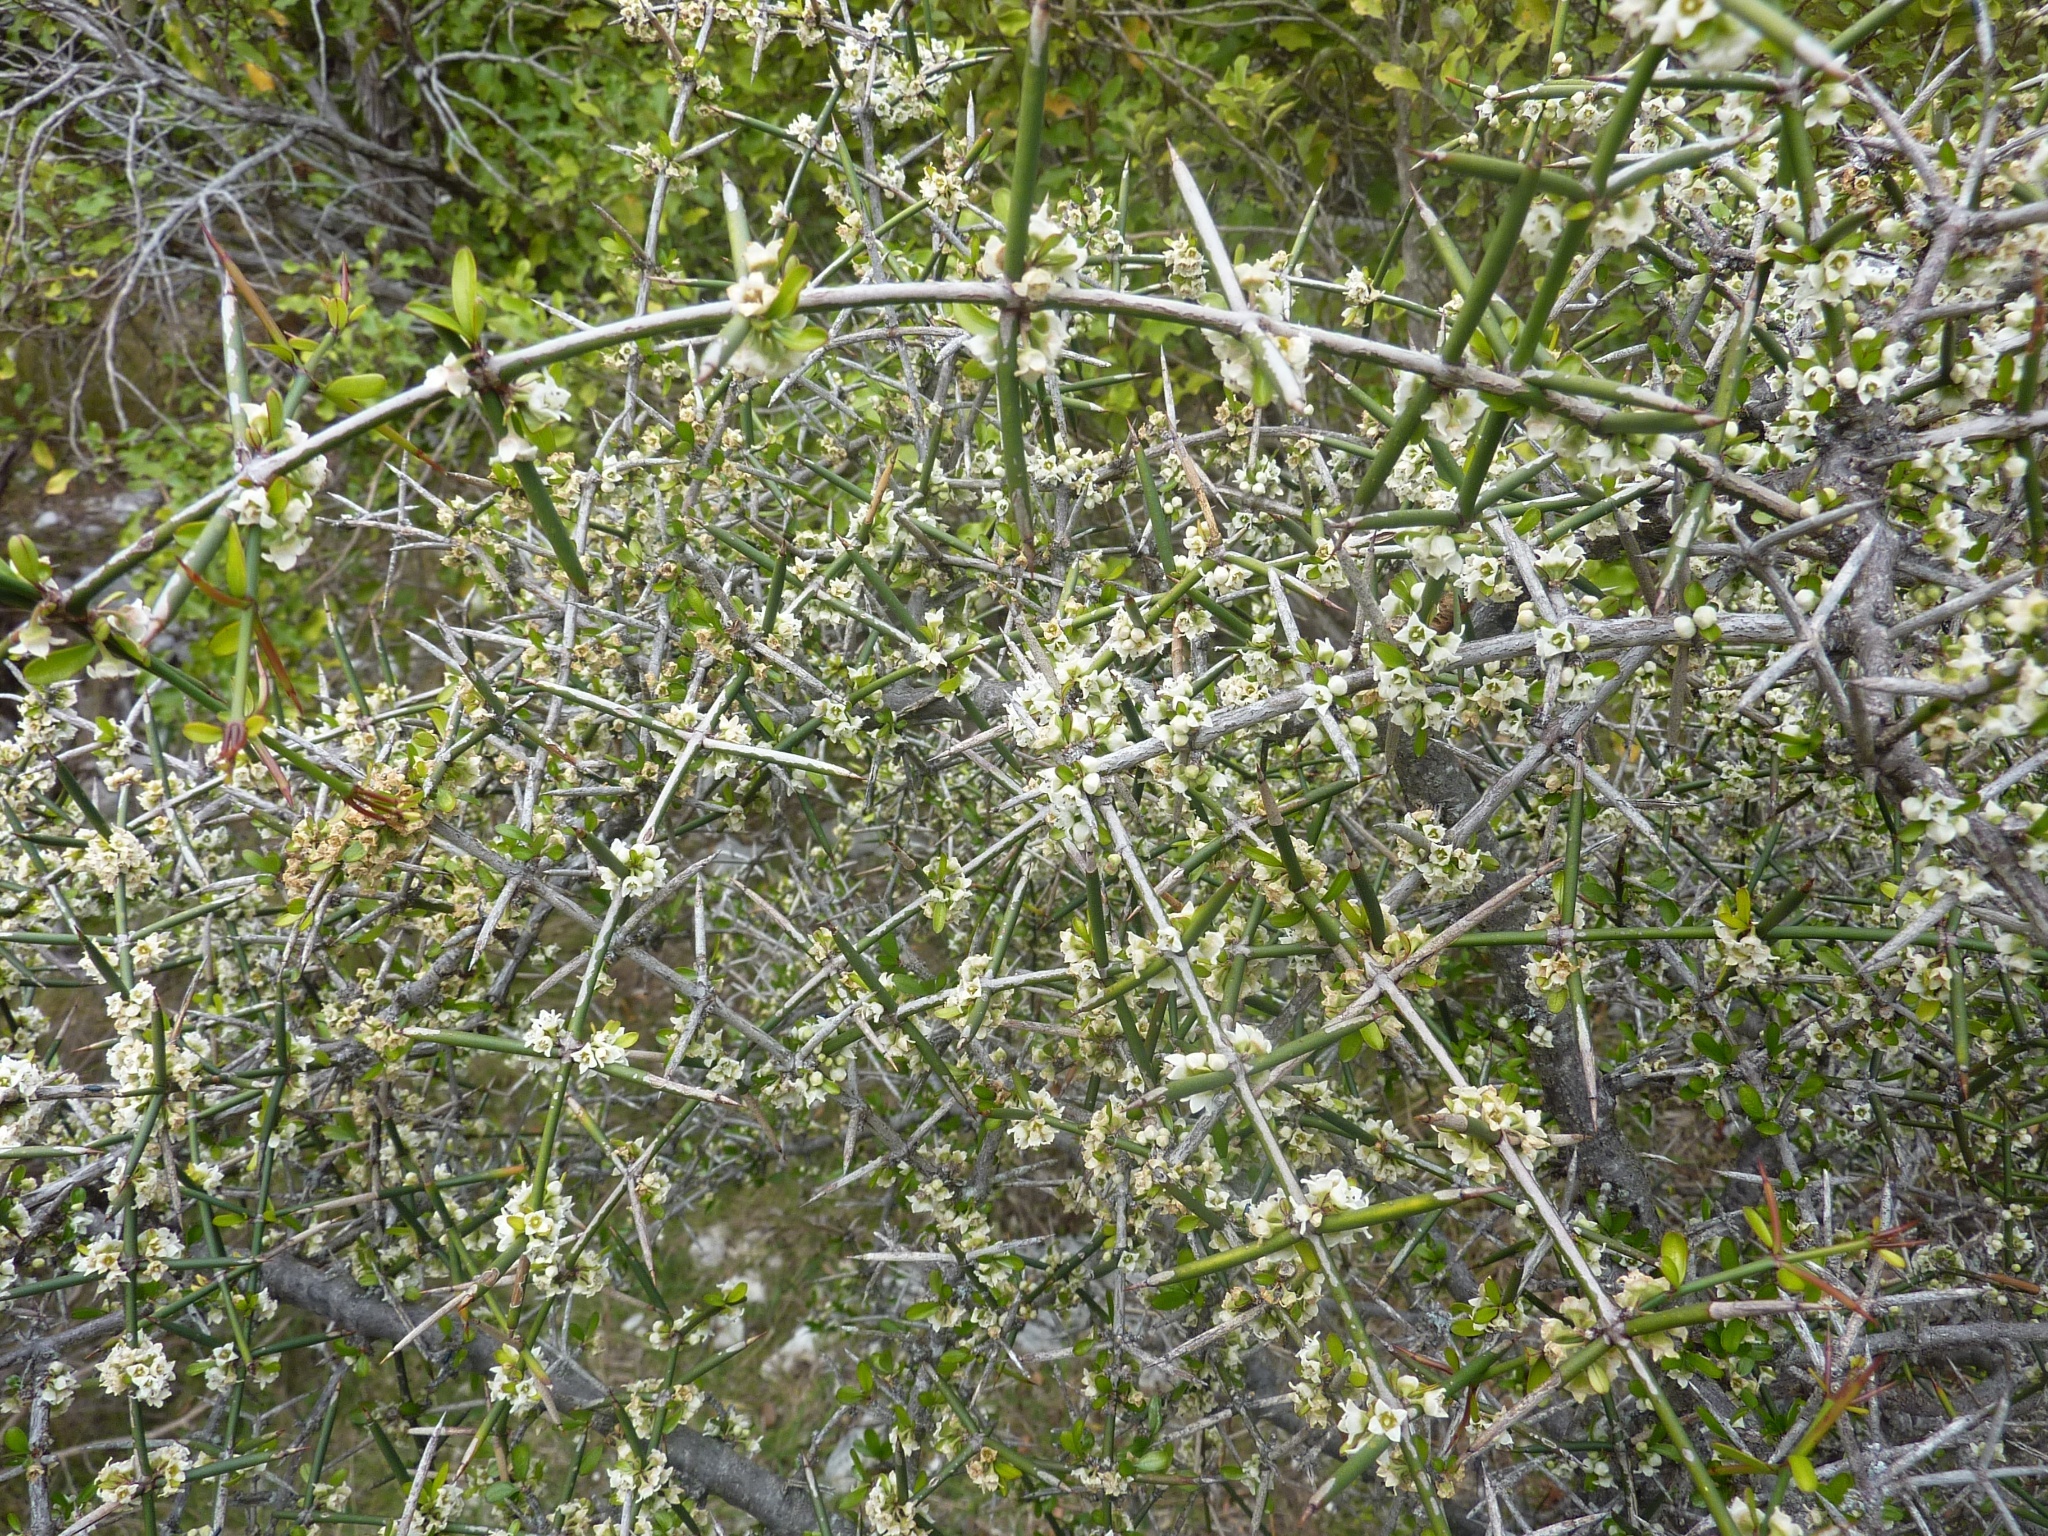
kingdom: Plantae
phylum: Tracheophyta
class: Magnoliopsida
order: Rosales
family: Rhamnaceae
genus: Discaria
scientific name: Discaria toumatou
